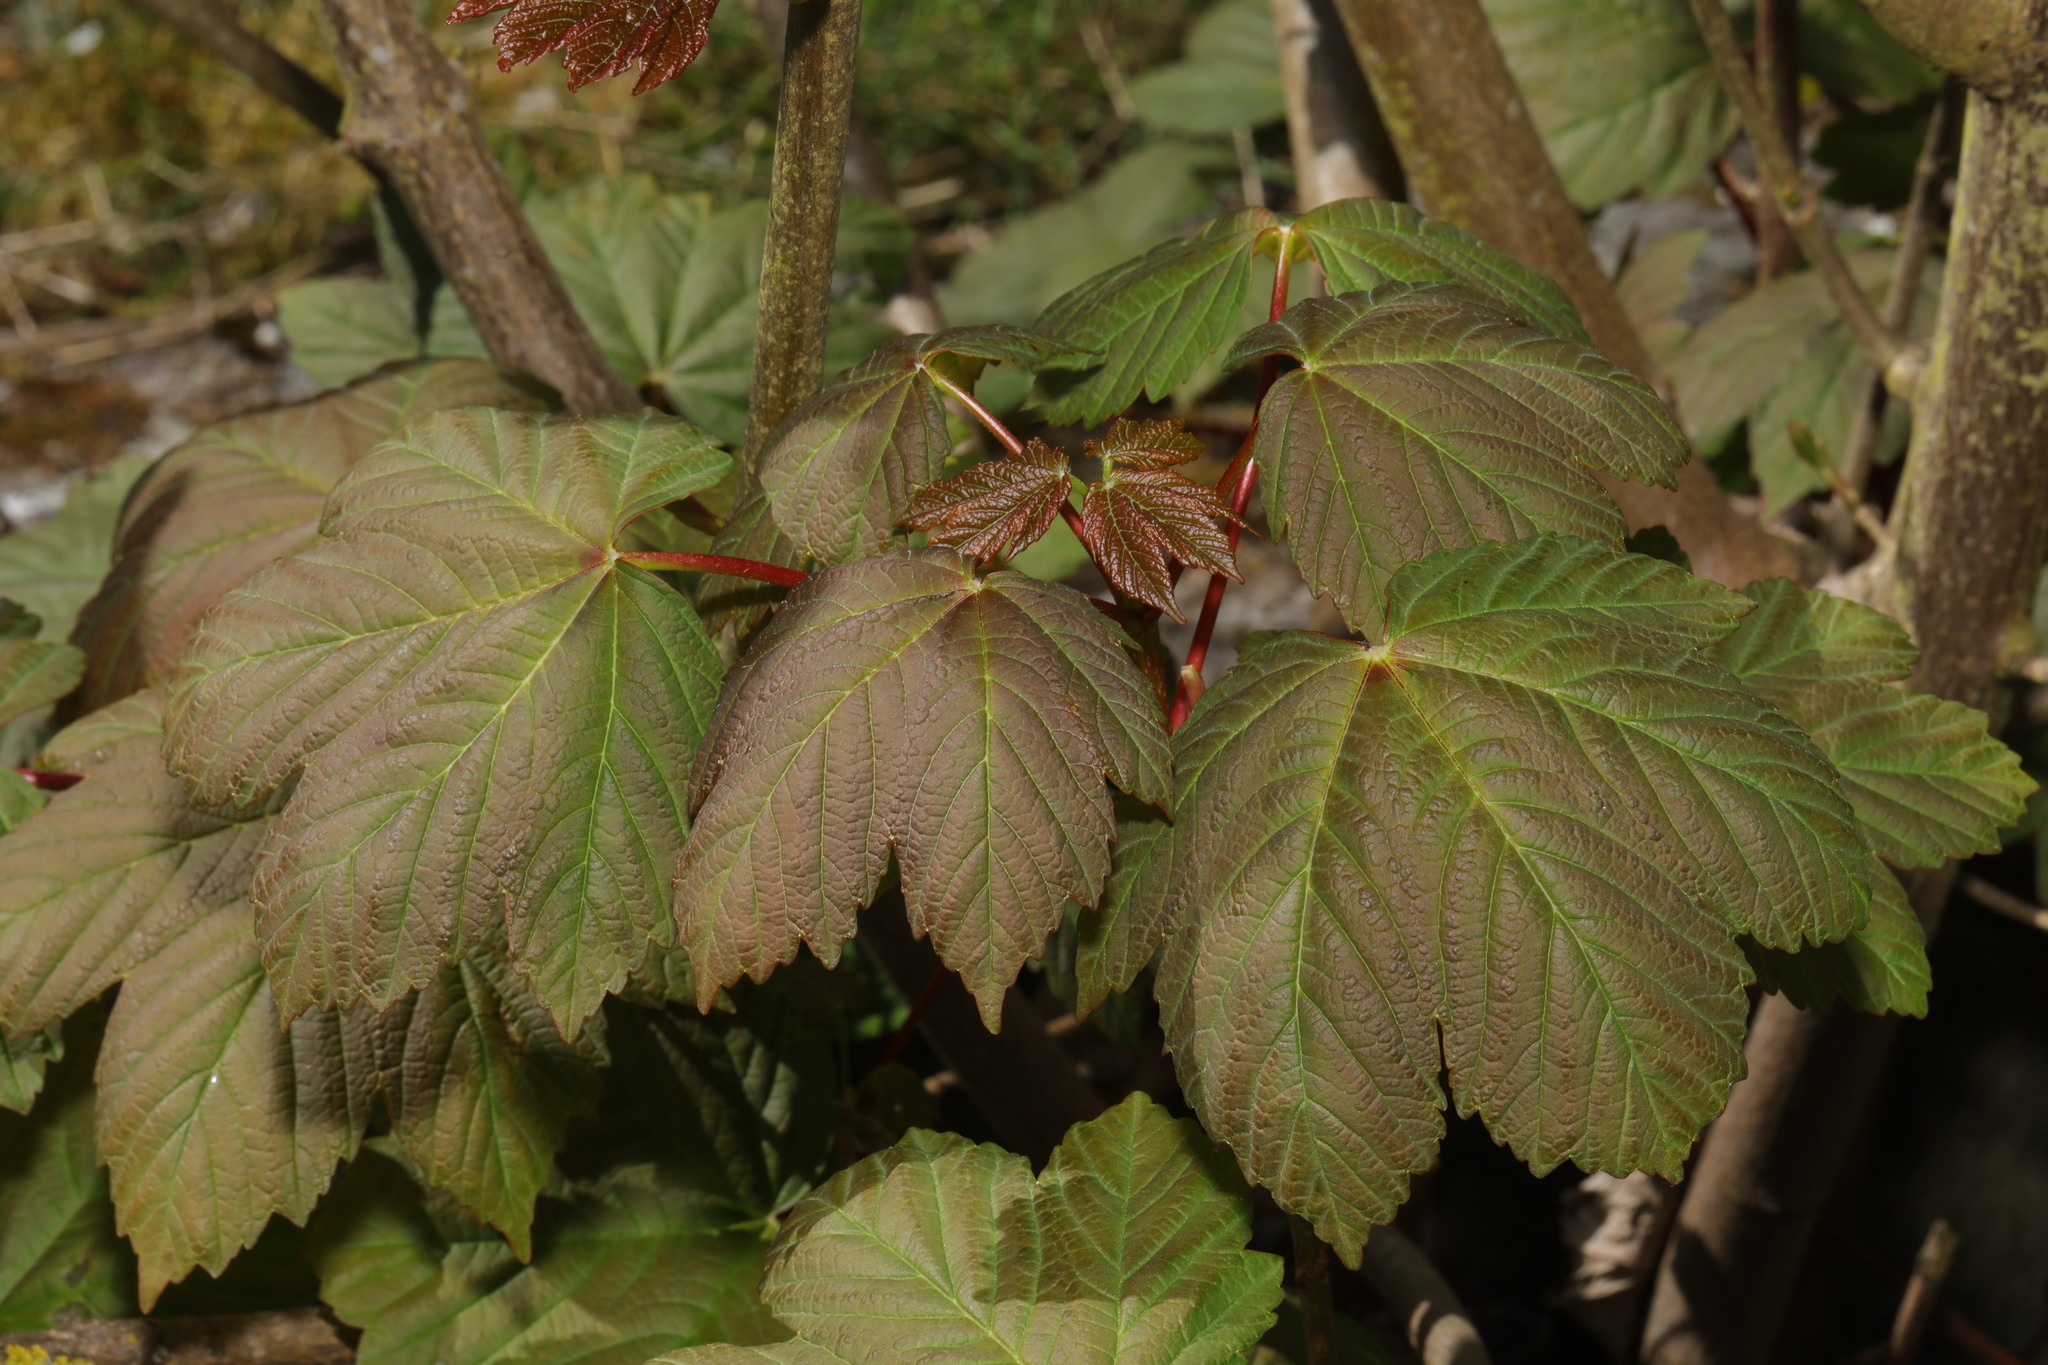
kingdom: Plantae
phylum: Tracheophyta
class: Magnoliopsida
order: Sapindales
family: Sapindaceae
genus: Acer
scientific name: Acer pseudoplatanus
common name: Sycamore
